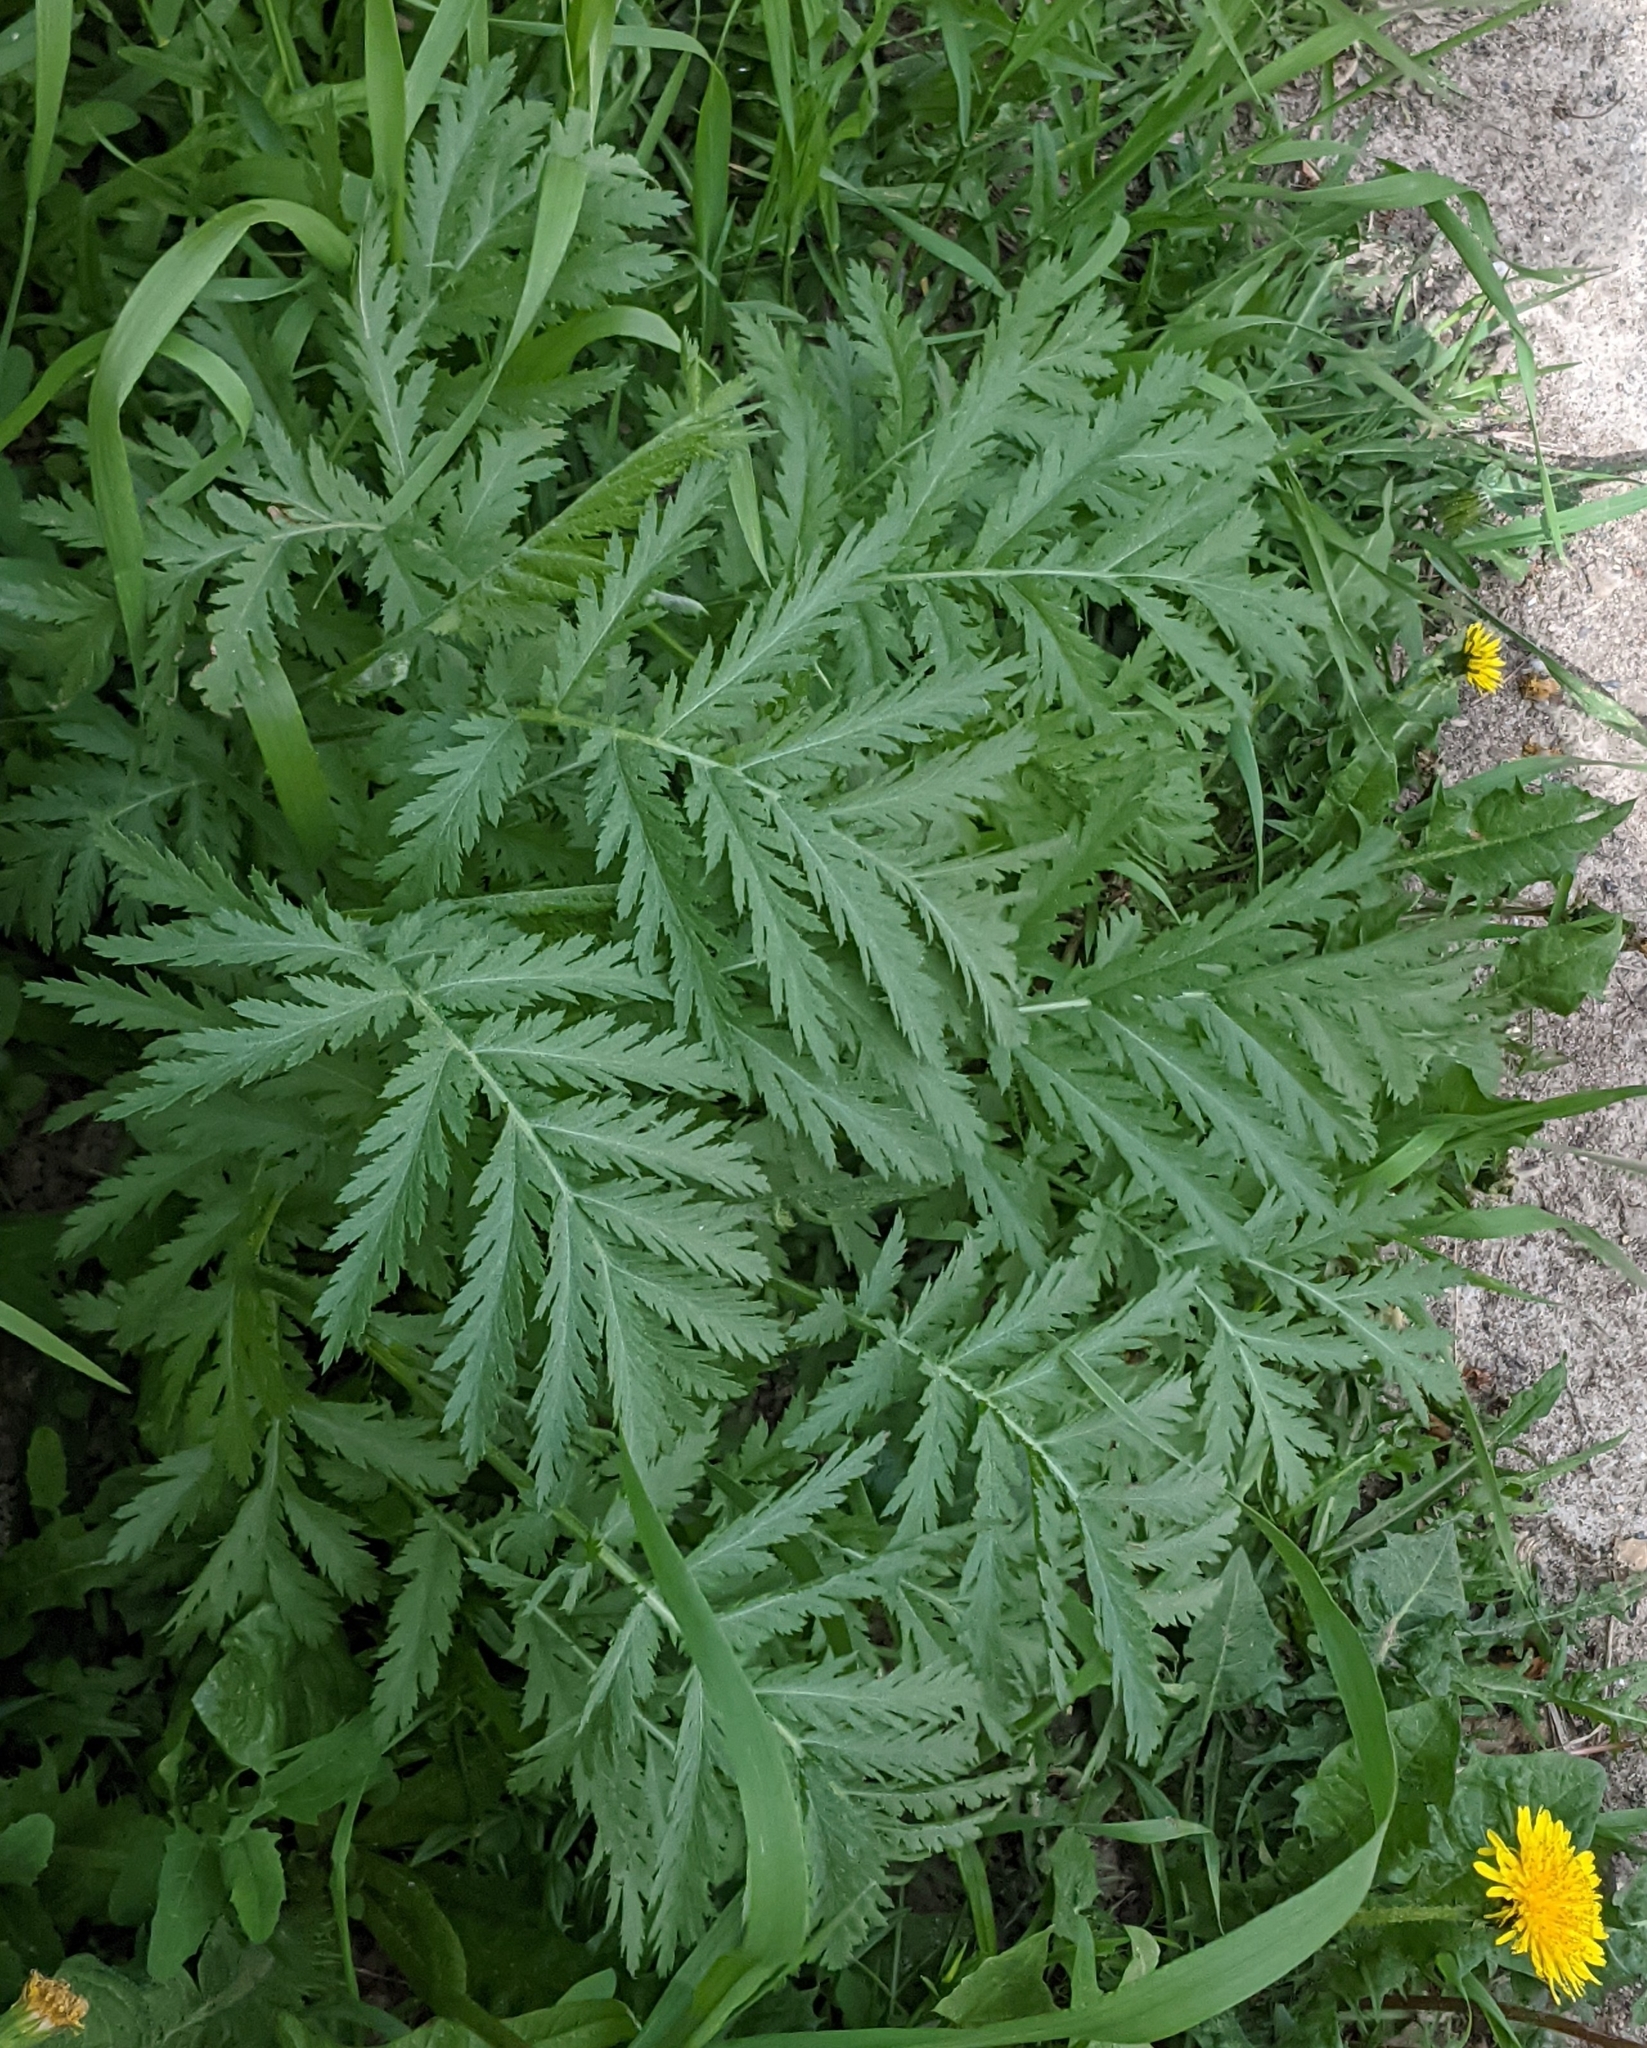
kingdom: Plantae
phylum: Tracheophyta
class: Magnoliopsida
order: Asterales
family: Asteraceae
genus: Tanacetum
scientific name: Tanacetum vulgare
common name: Common tansy
